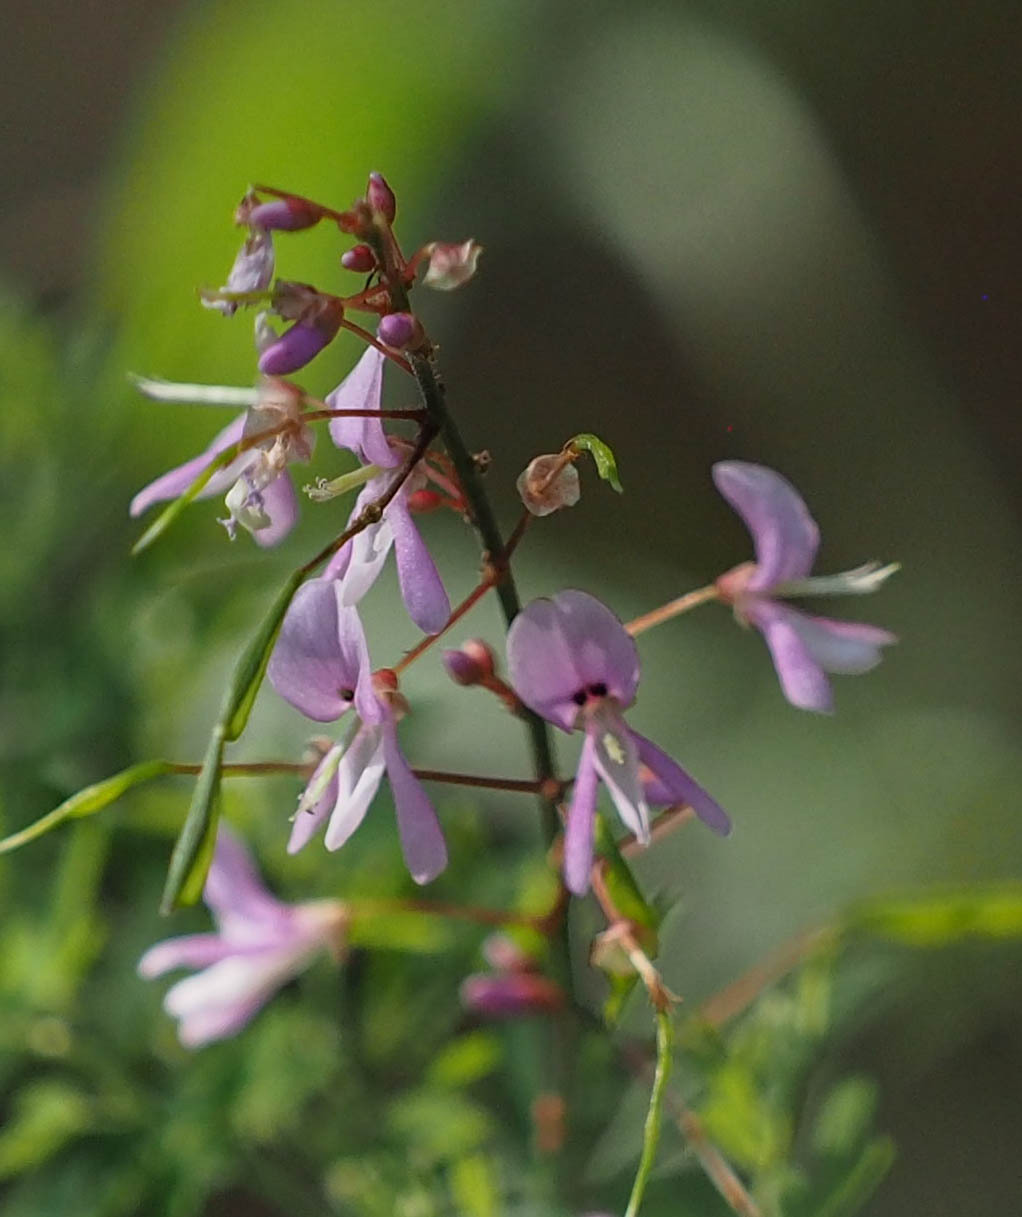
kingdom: Plantae
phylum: Tracheophyta
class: Magnoliopsida
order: Fabales
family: Fabaceae
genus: Desmodium
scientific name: Desmodium paniculatum
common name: Panicled tick-clover
